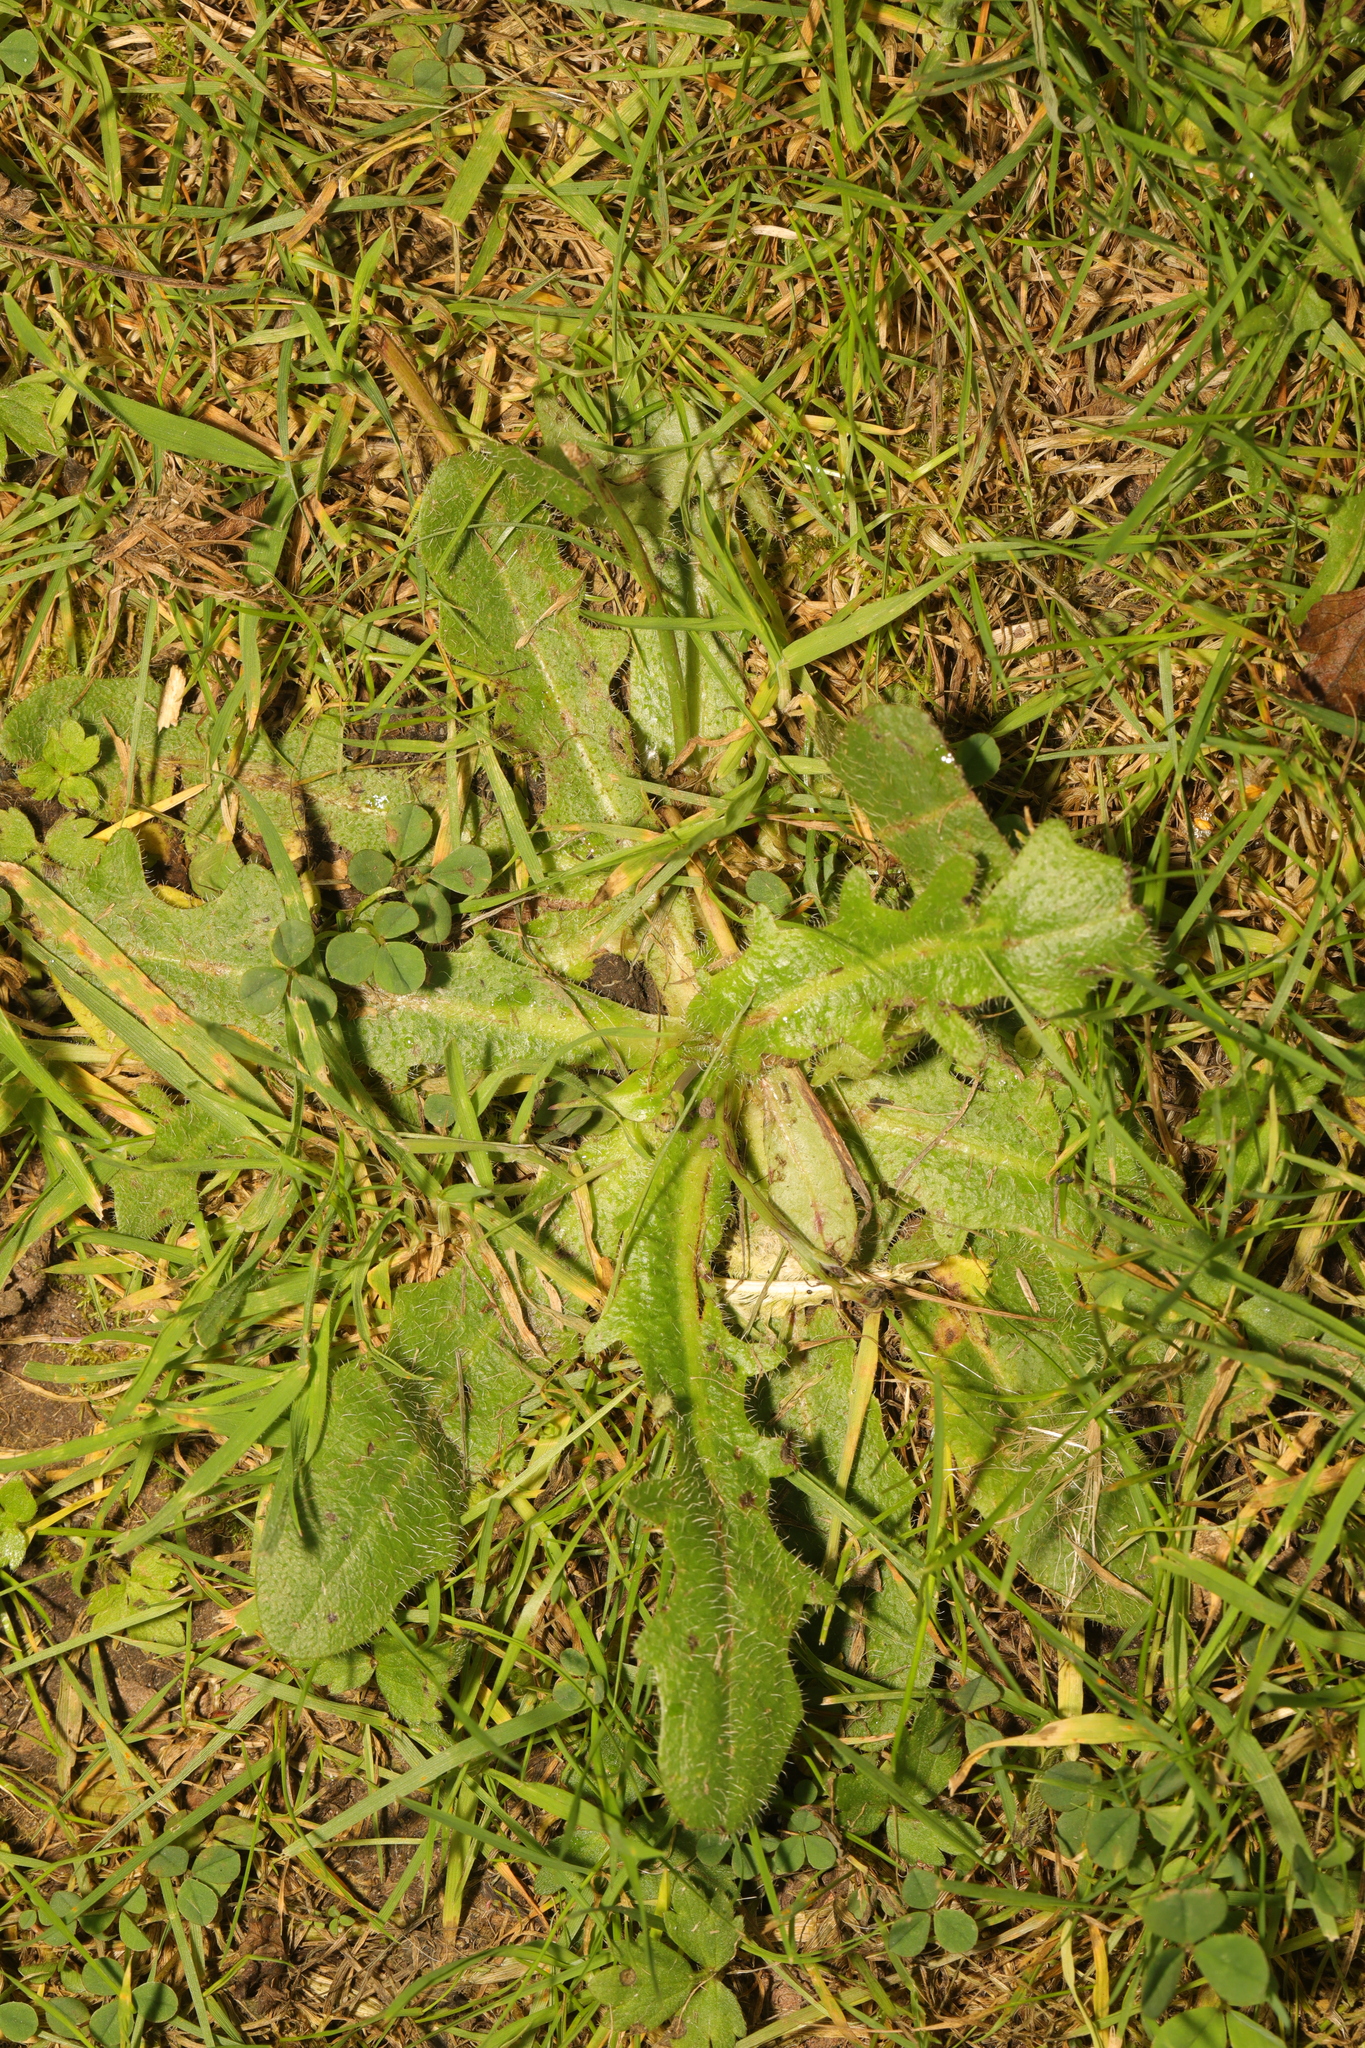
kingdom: Plantae
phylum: Tracheophyta
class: Magnoliopsida
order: Asterales
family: Asteraceae
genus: Hypochaeris
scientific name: Hypochaeris radicata
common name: Flatweed
